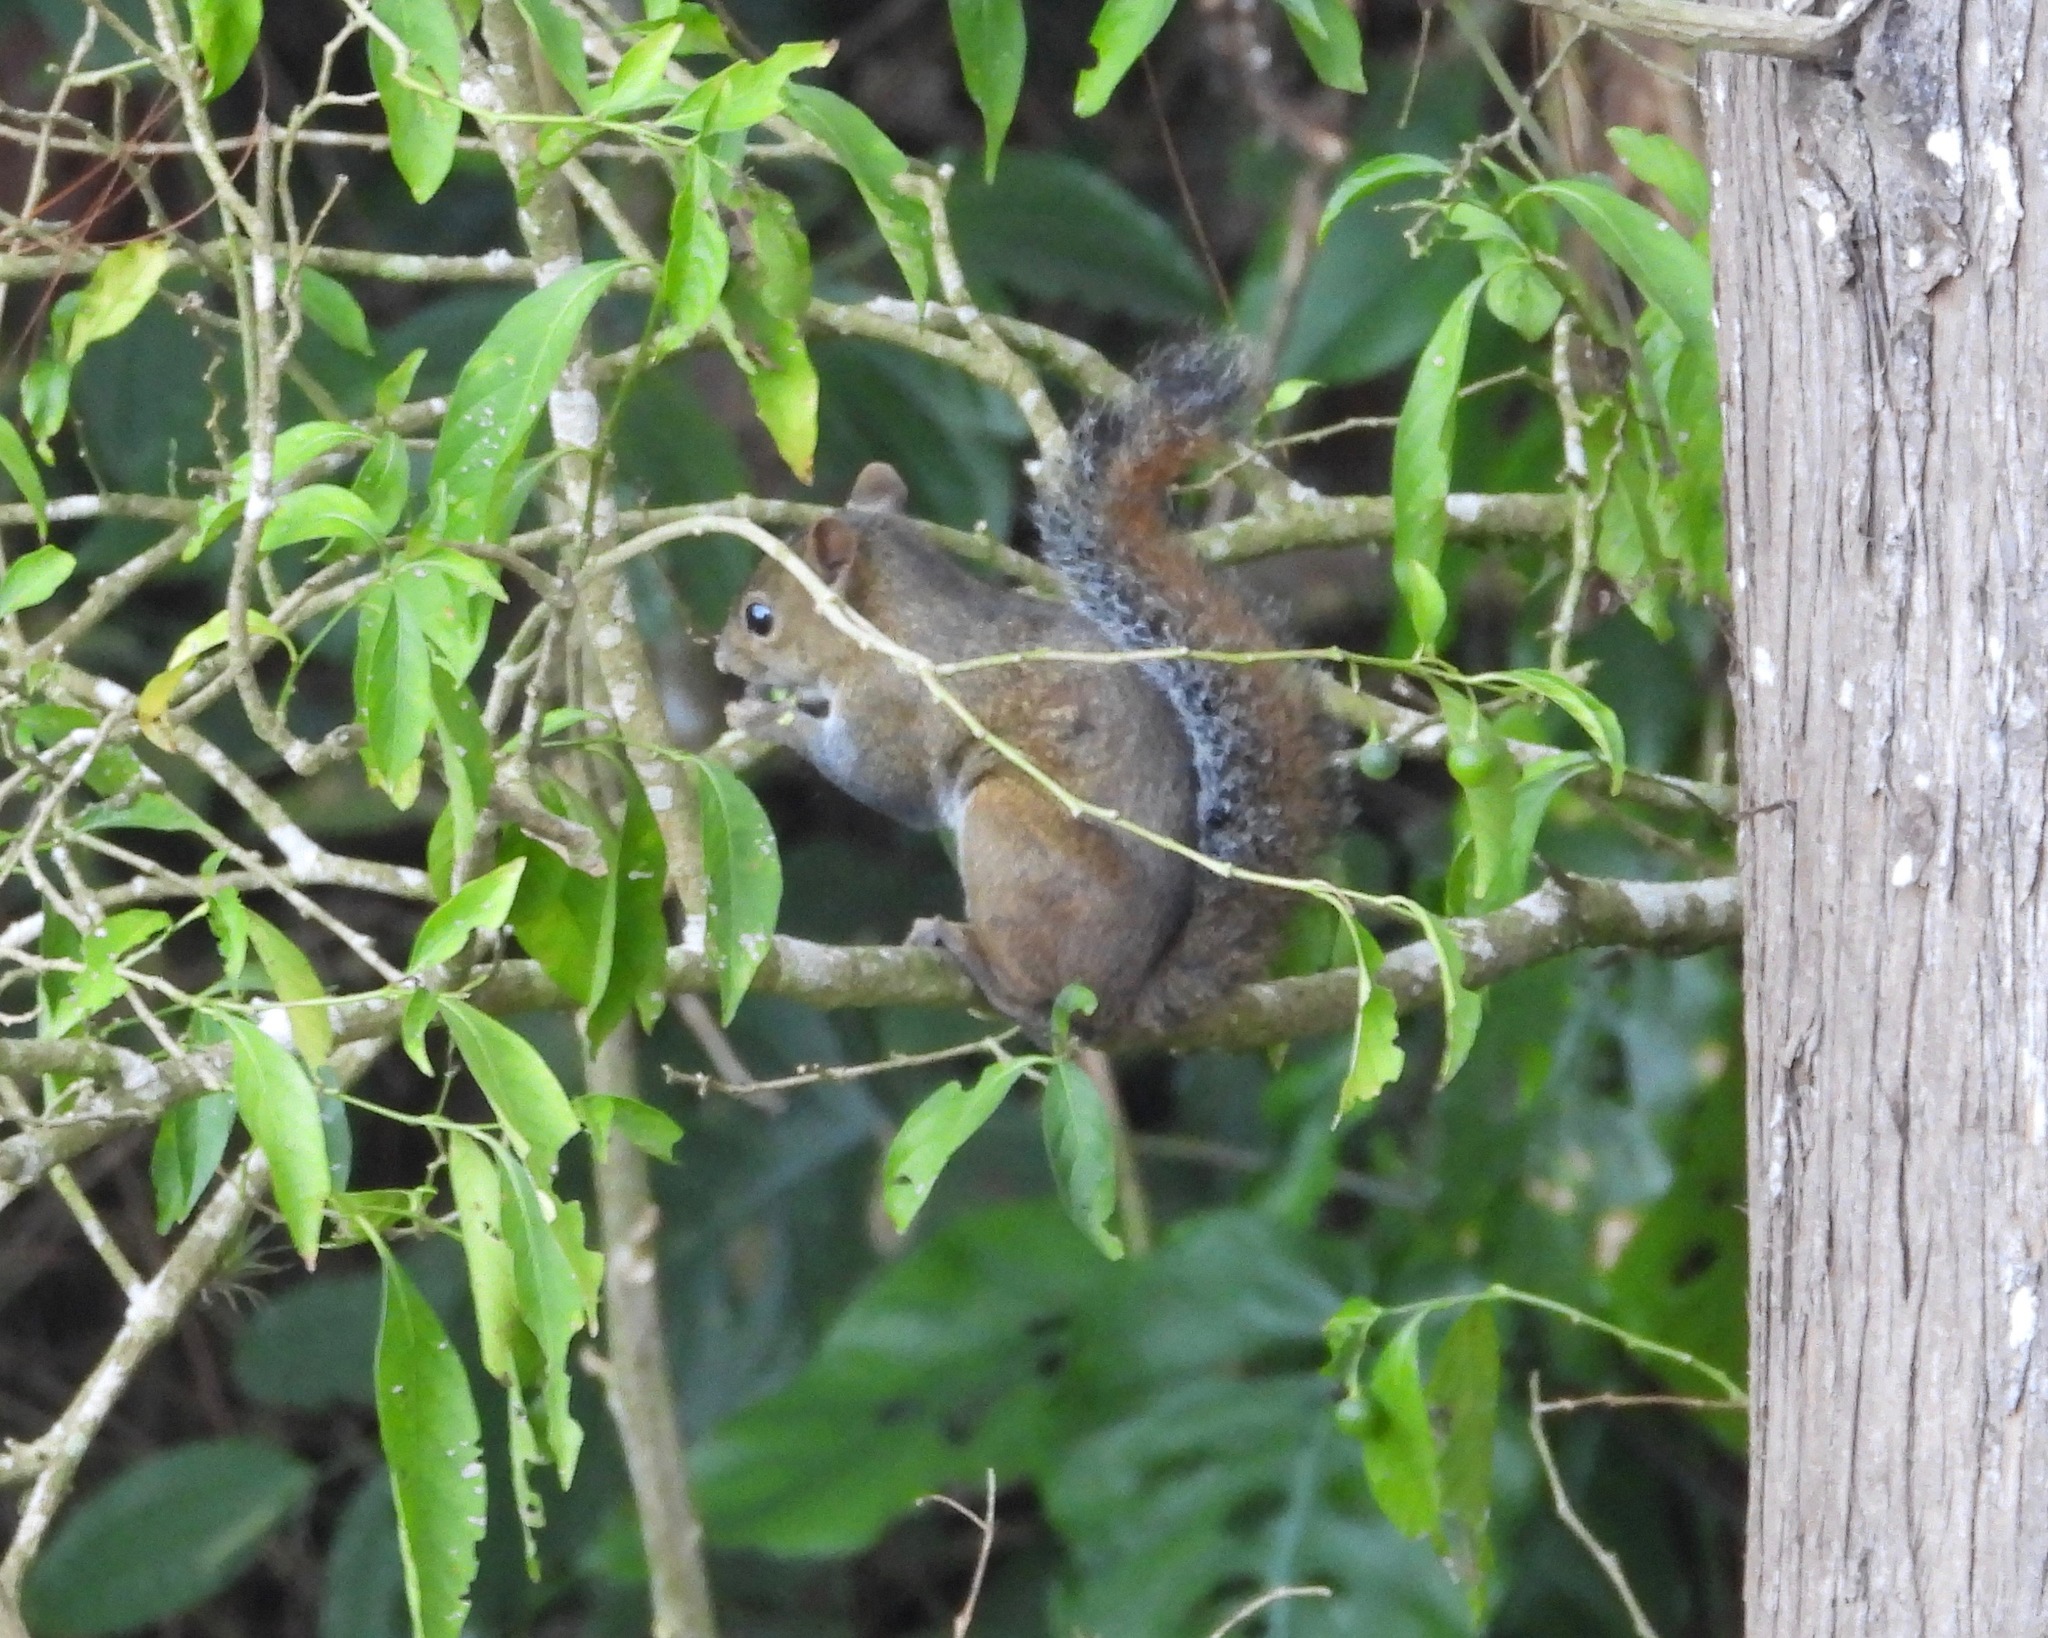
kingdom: Animalia
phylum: Chordata
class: Mammalia
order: Rodentia
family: Sciuridae
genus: Sciurus
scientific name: Sciurus deppei
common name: Deppe's squirrel
